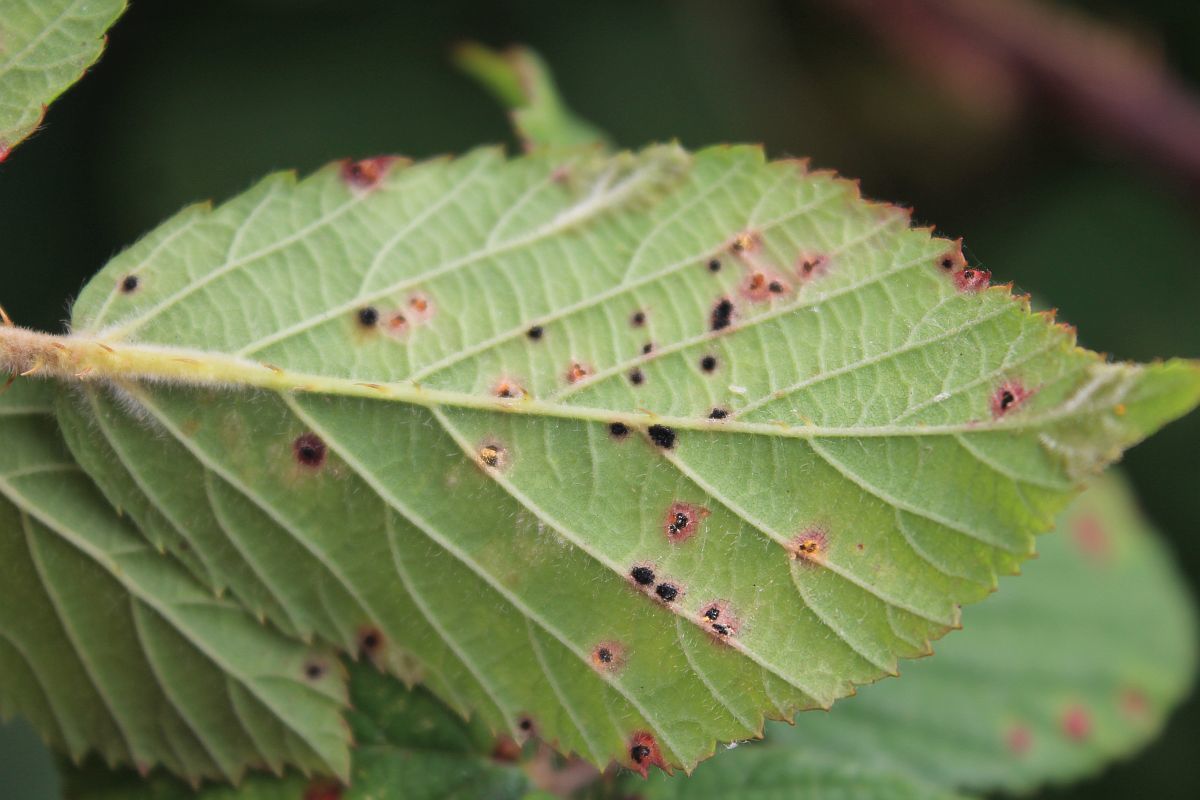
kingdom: Fungi
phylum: Basidiomycota
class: Pucciniomycetes
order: Pucciniales
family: Phragmidiaceae
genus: Phragmidium
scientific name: Phragmidium violaceum
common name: Violet bramble rust
